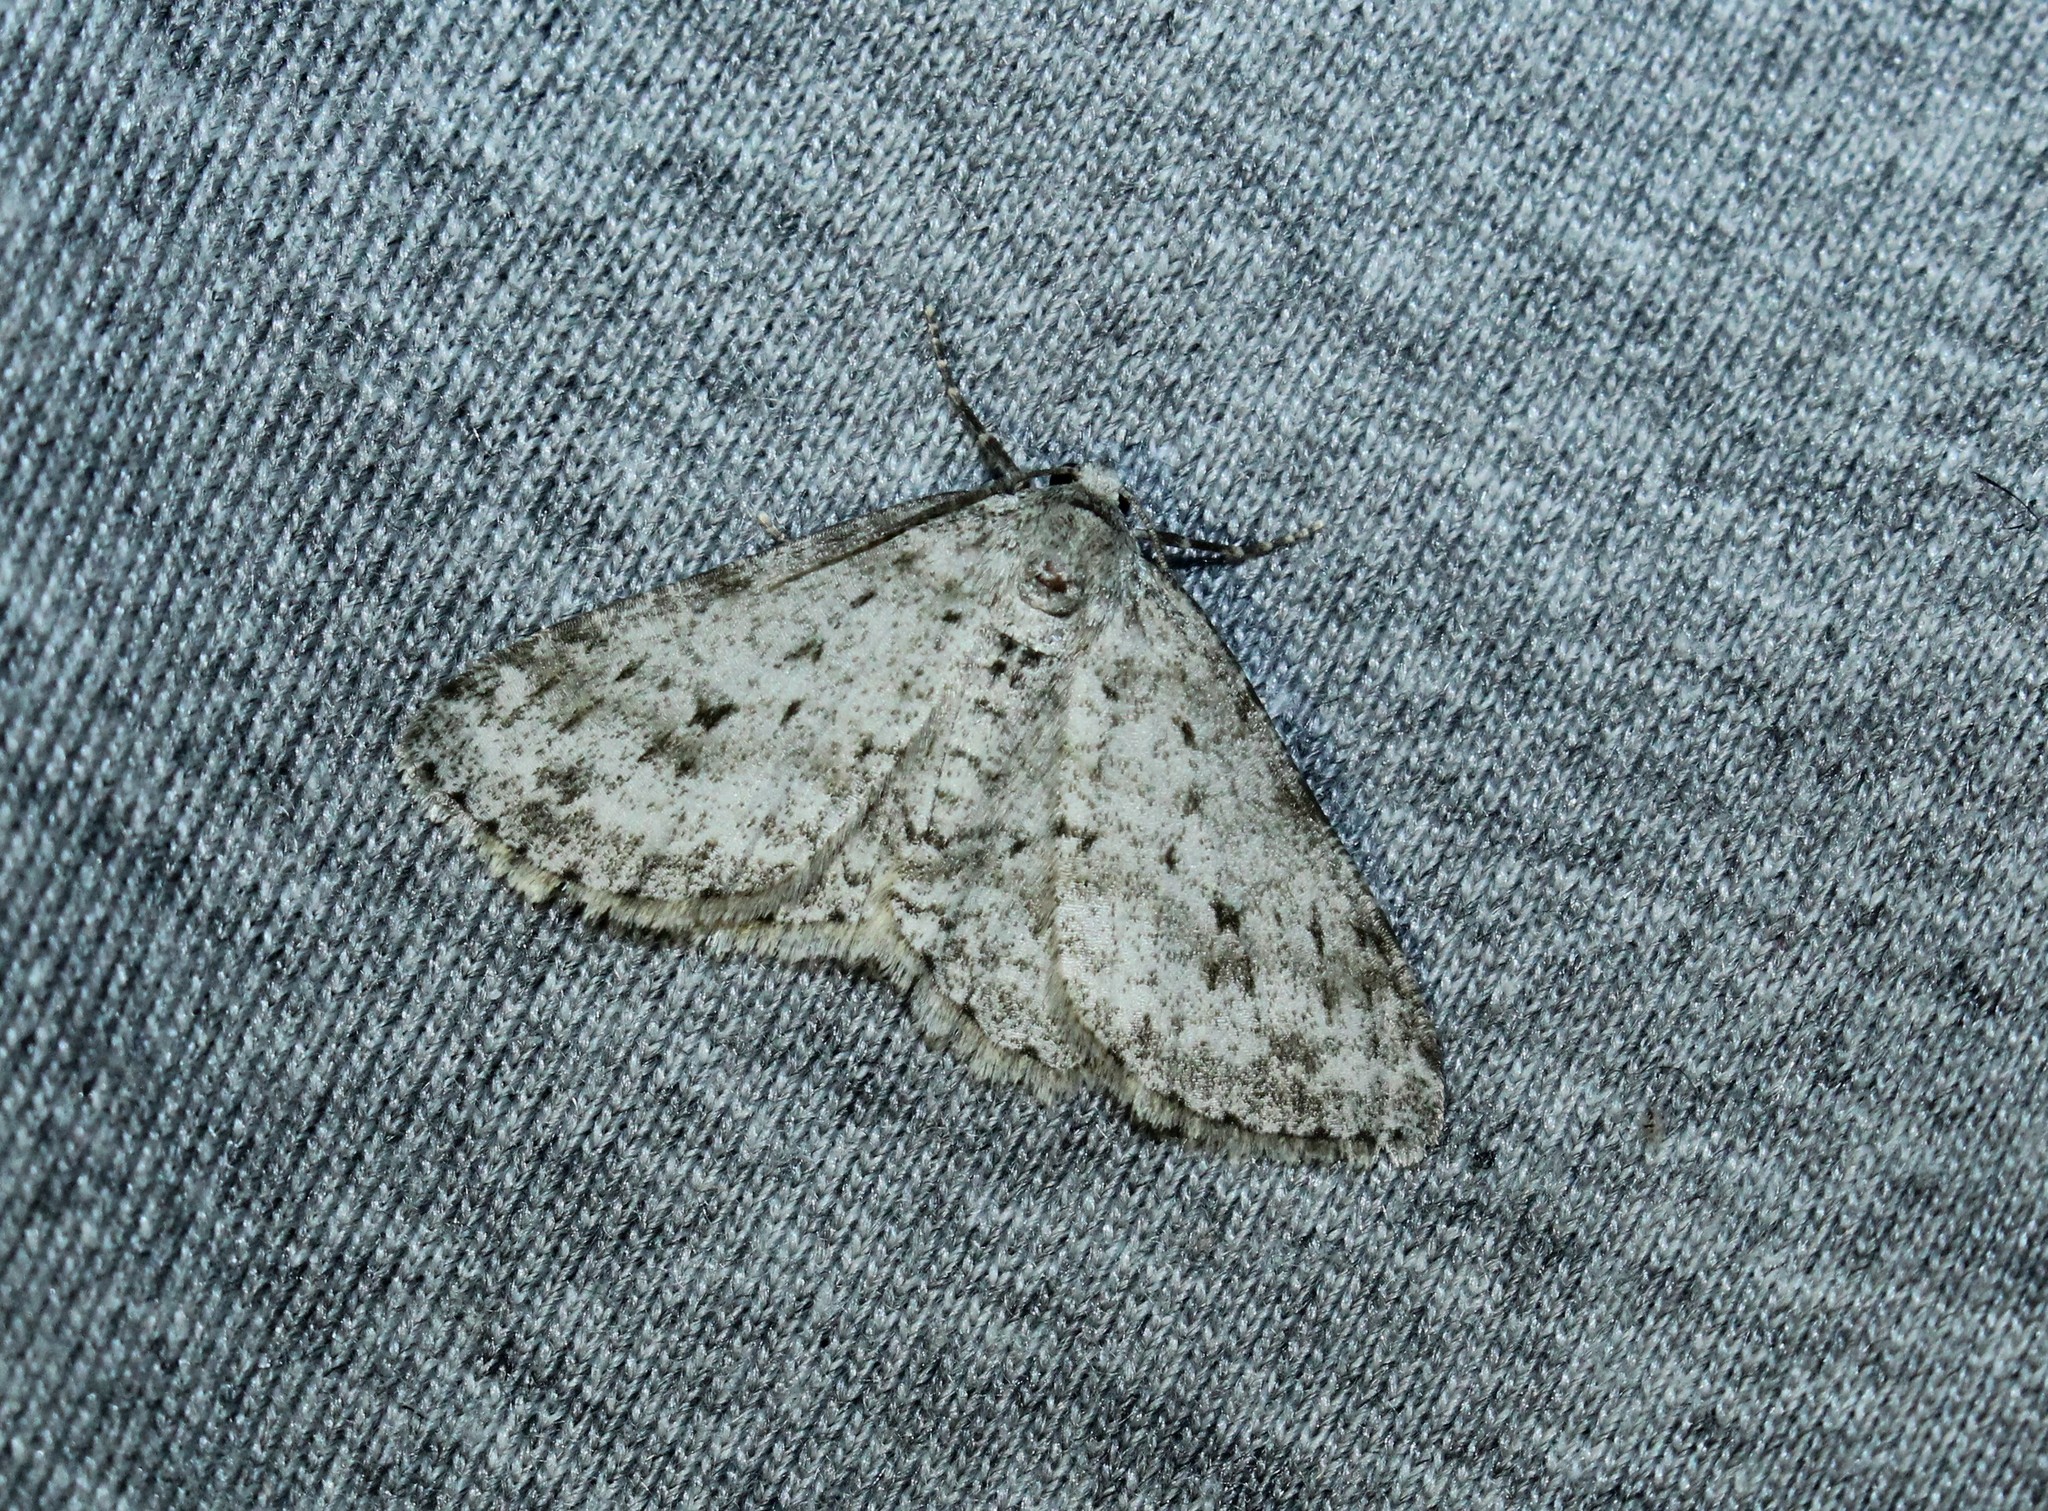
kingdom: Animalia
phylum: Arthropoda
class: Insecta
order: Lepidoptera
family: Geometridae
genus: Ectropis
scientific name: Ectropis crepuscularia
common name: Engrailed
